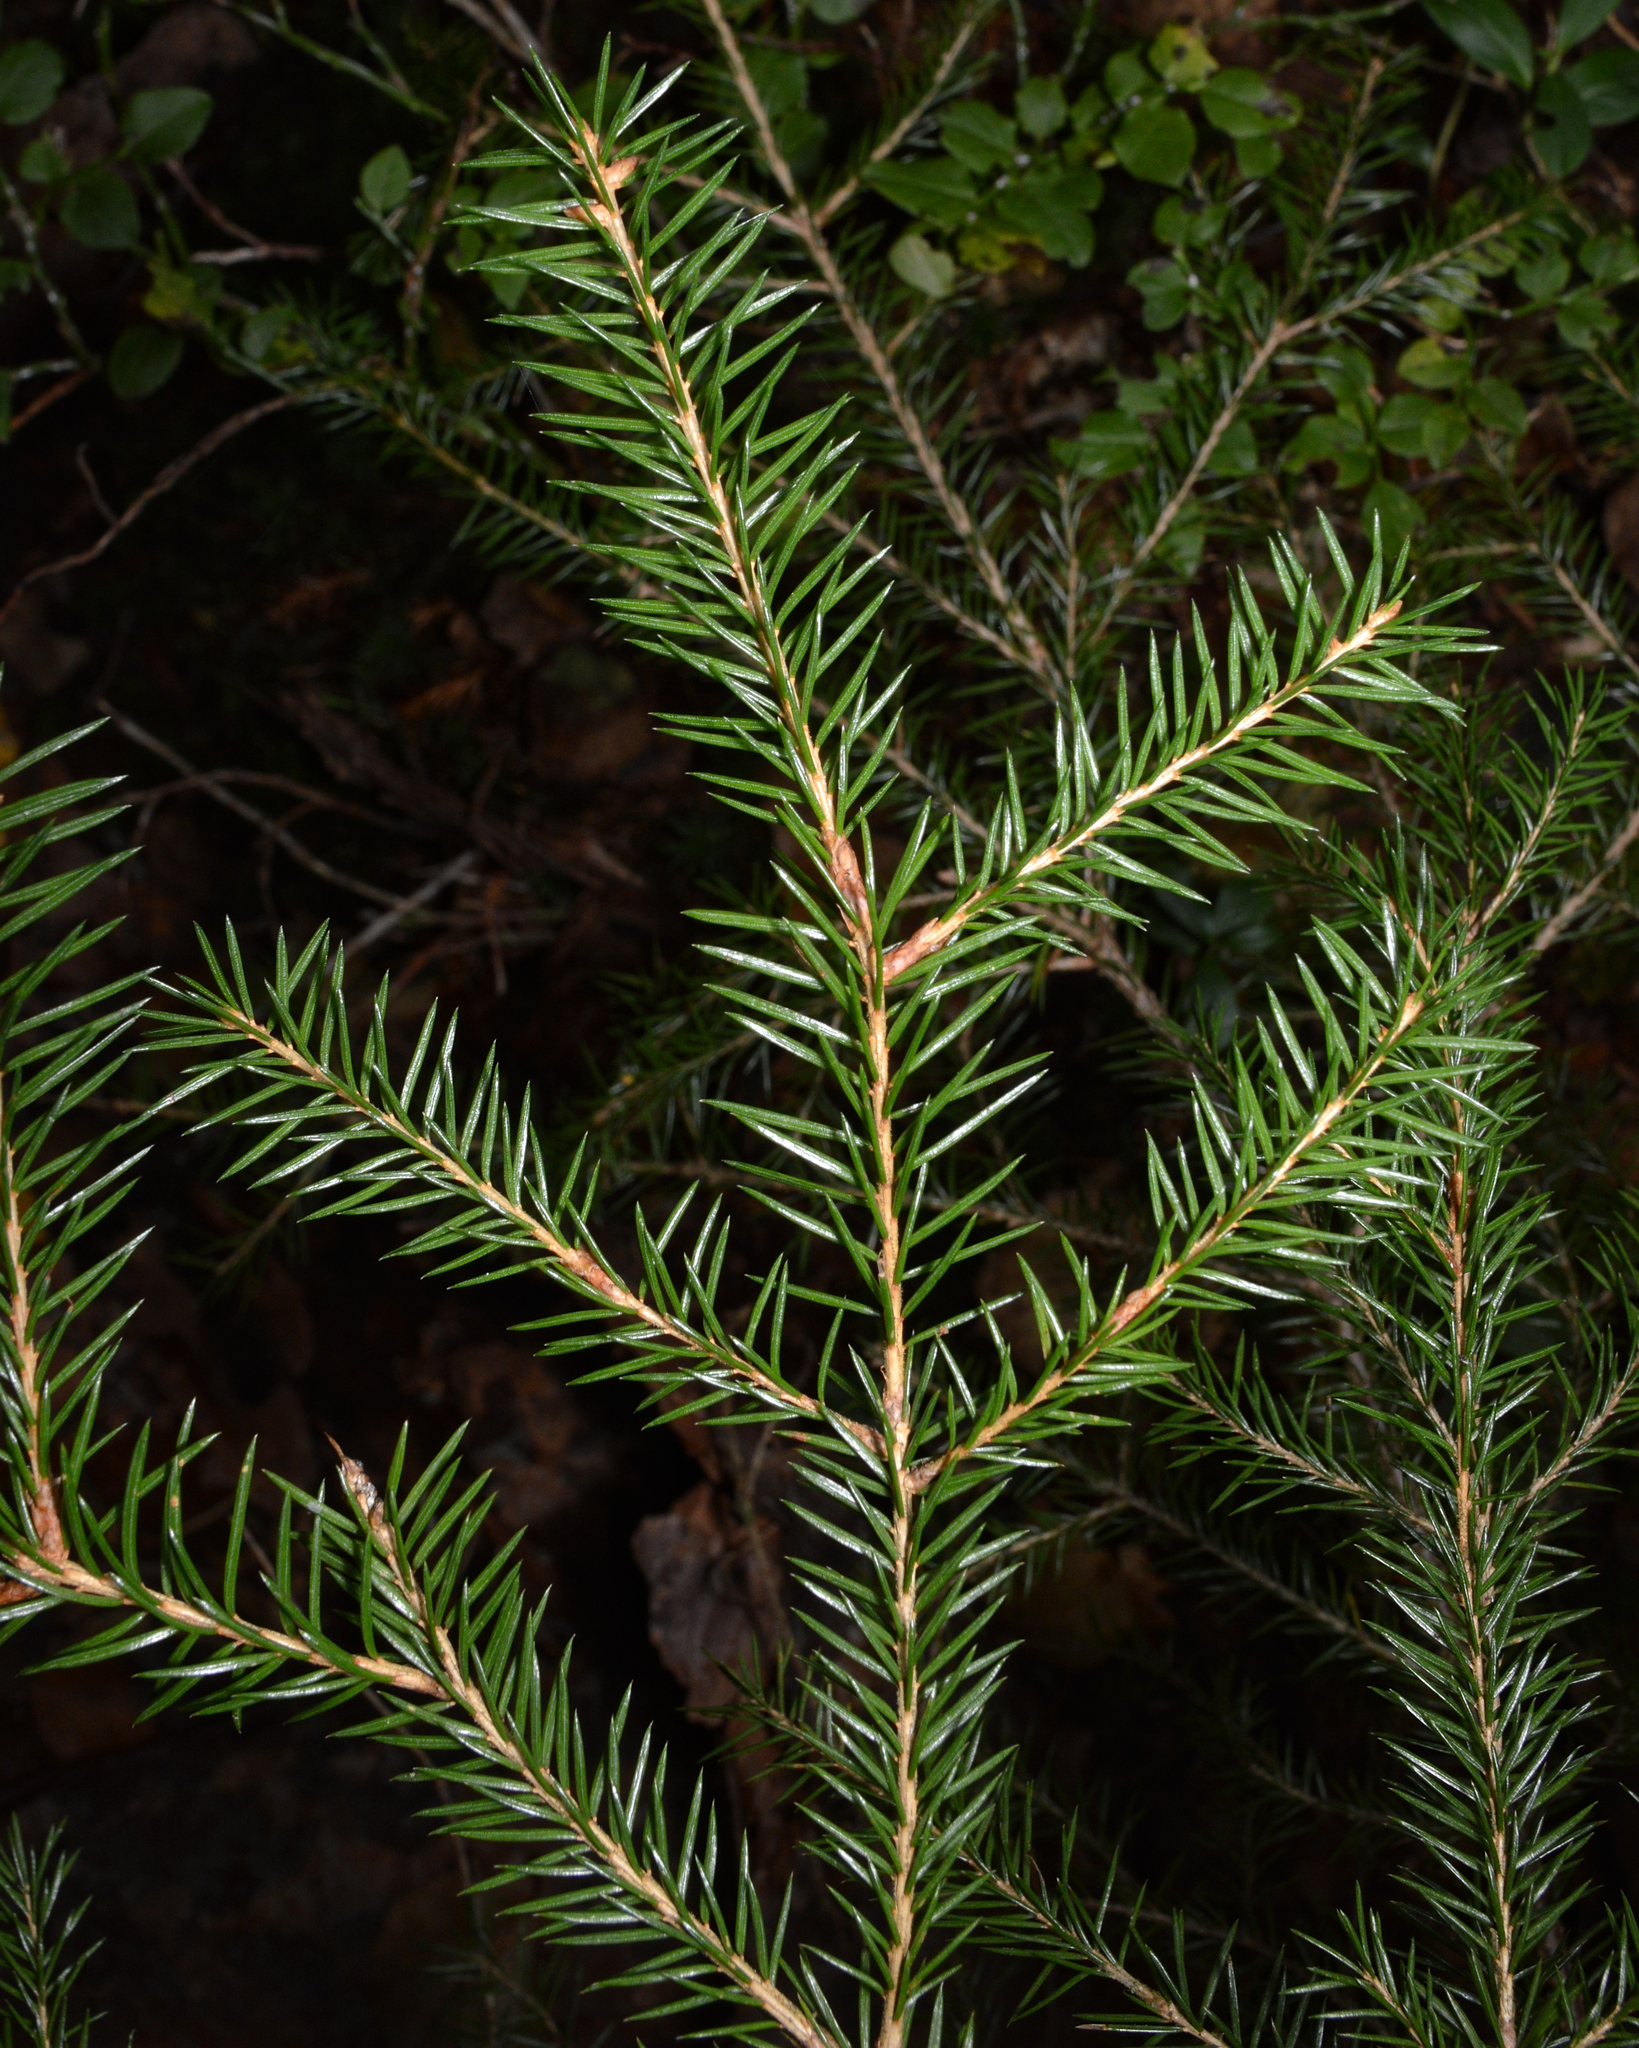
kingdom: Plantae
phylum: Tracheophyta
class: Pinopsida
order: Pinales
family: Pinaceae
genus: Picea
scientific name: Picea abies
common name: Norway spruce
